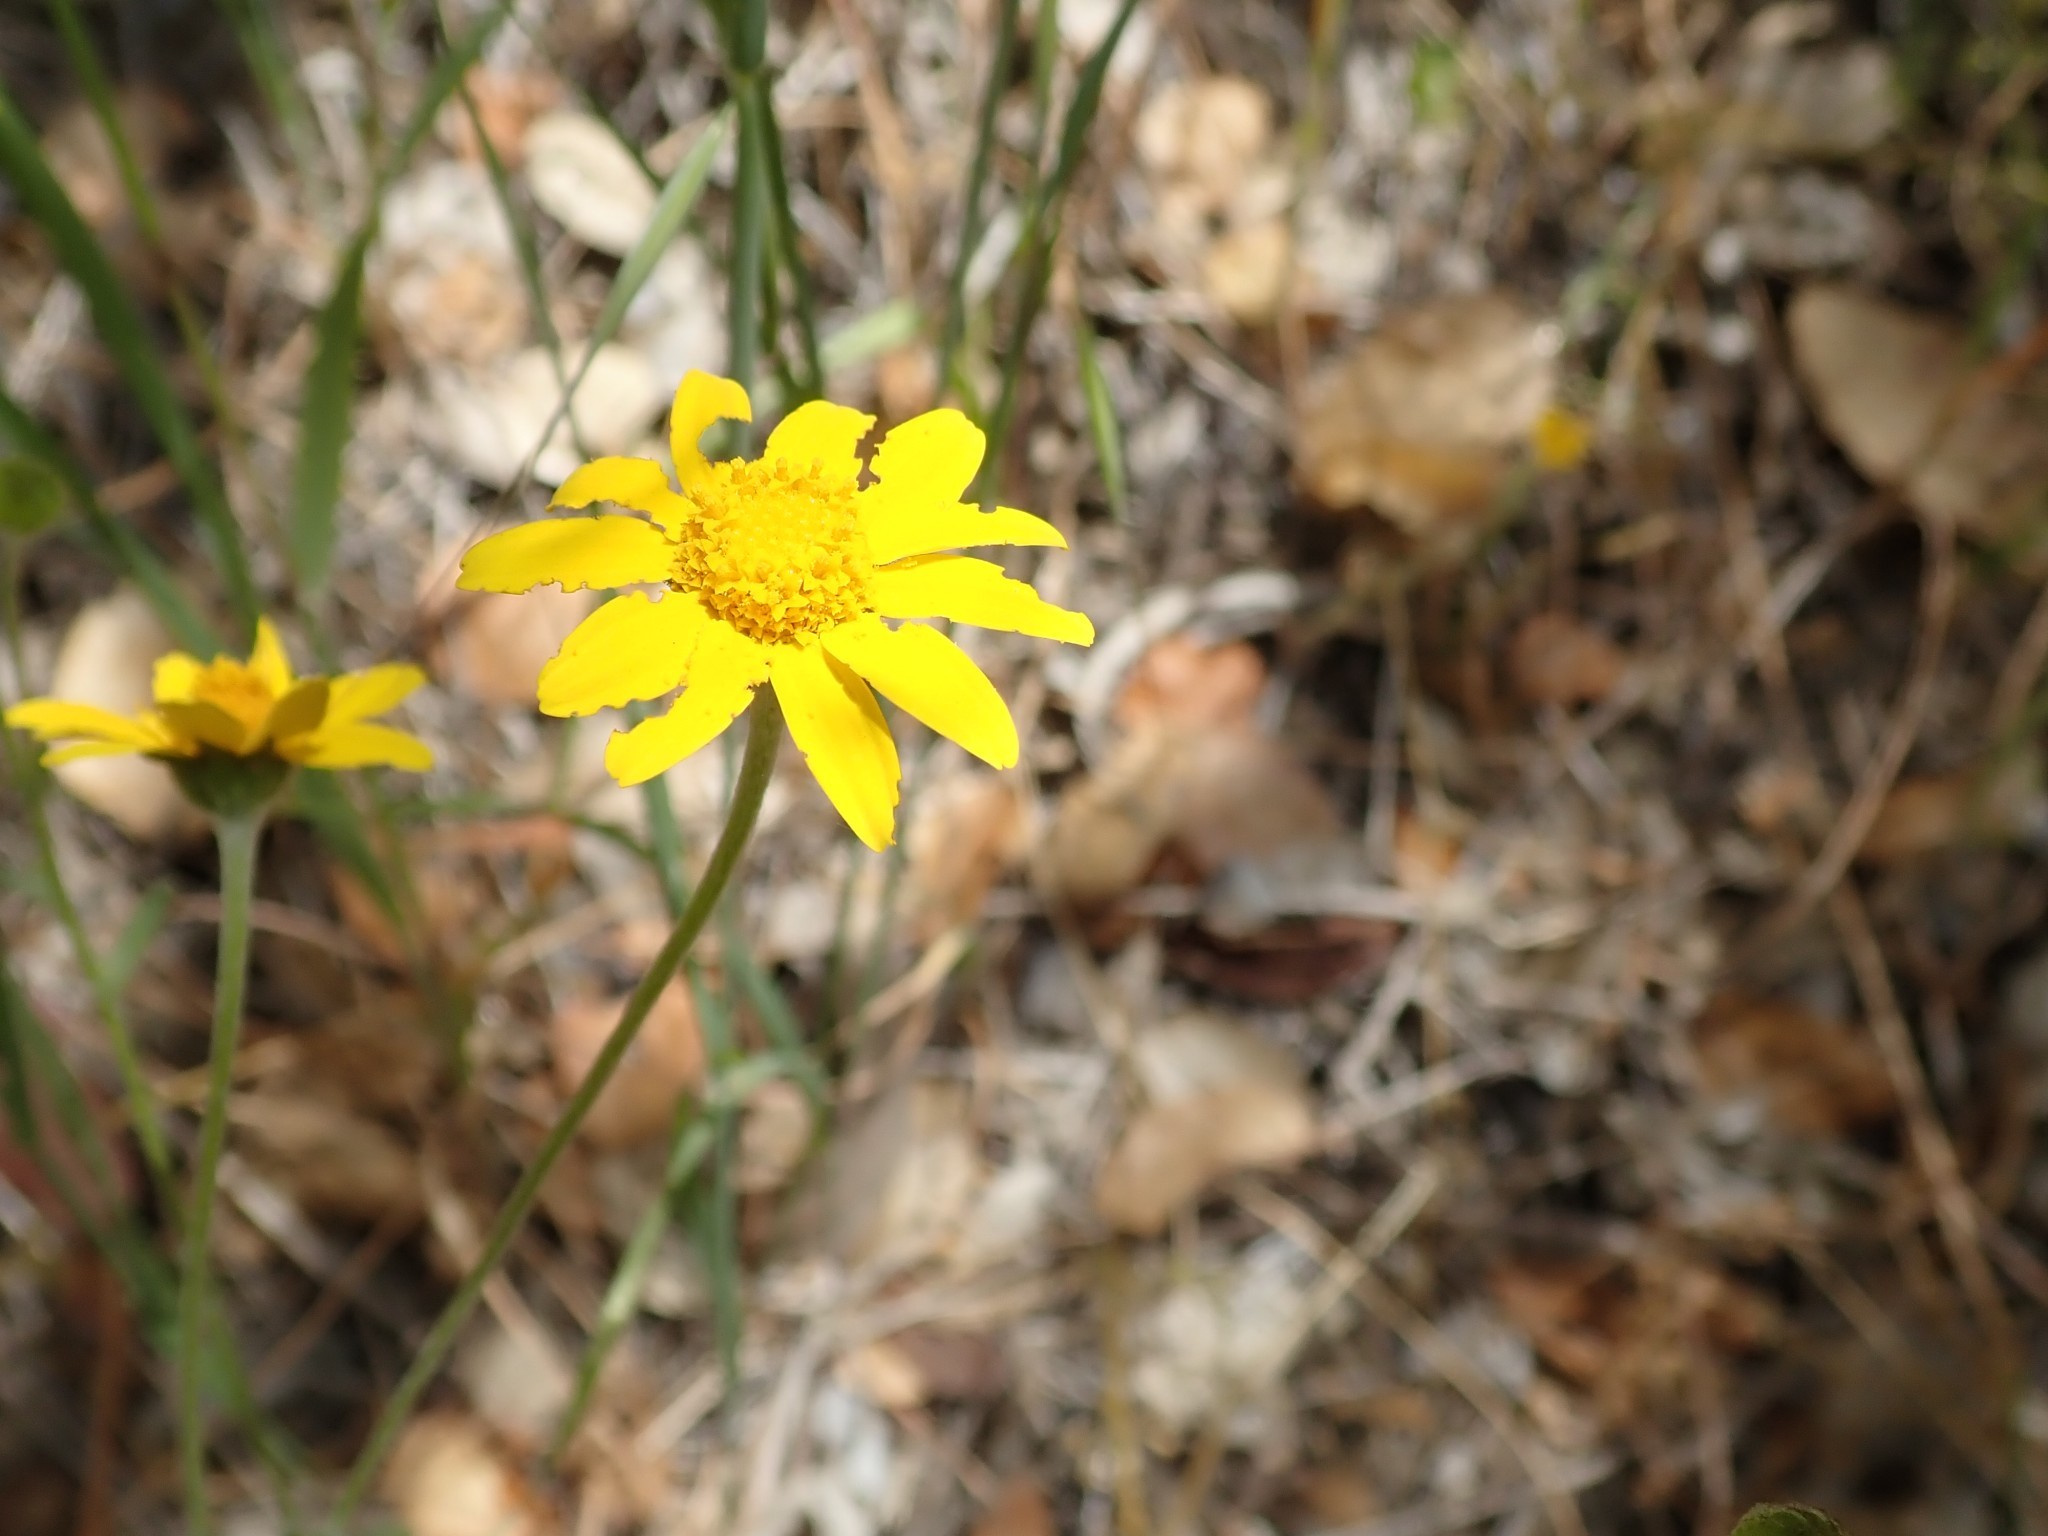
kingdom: Plantae
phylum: Tracheophyta
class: Magnoliopsida
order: Asterales
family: Asteraceae
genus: Monolopia
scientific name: Monolopia gracilens
